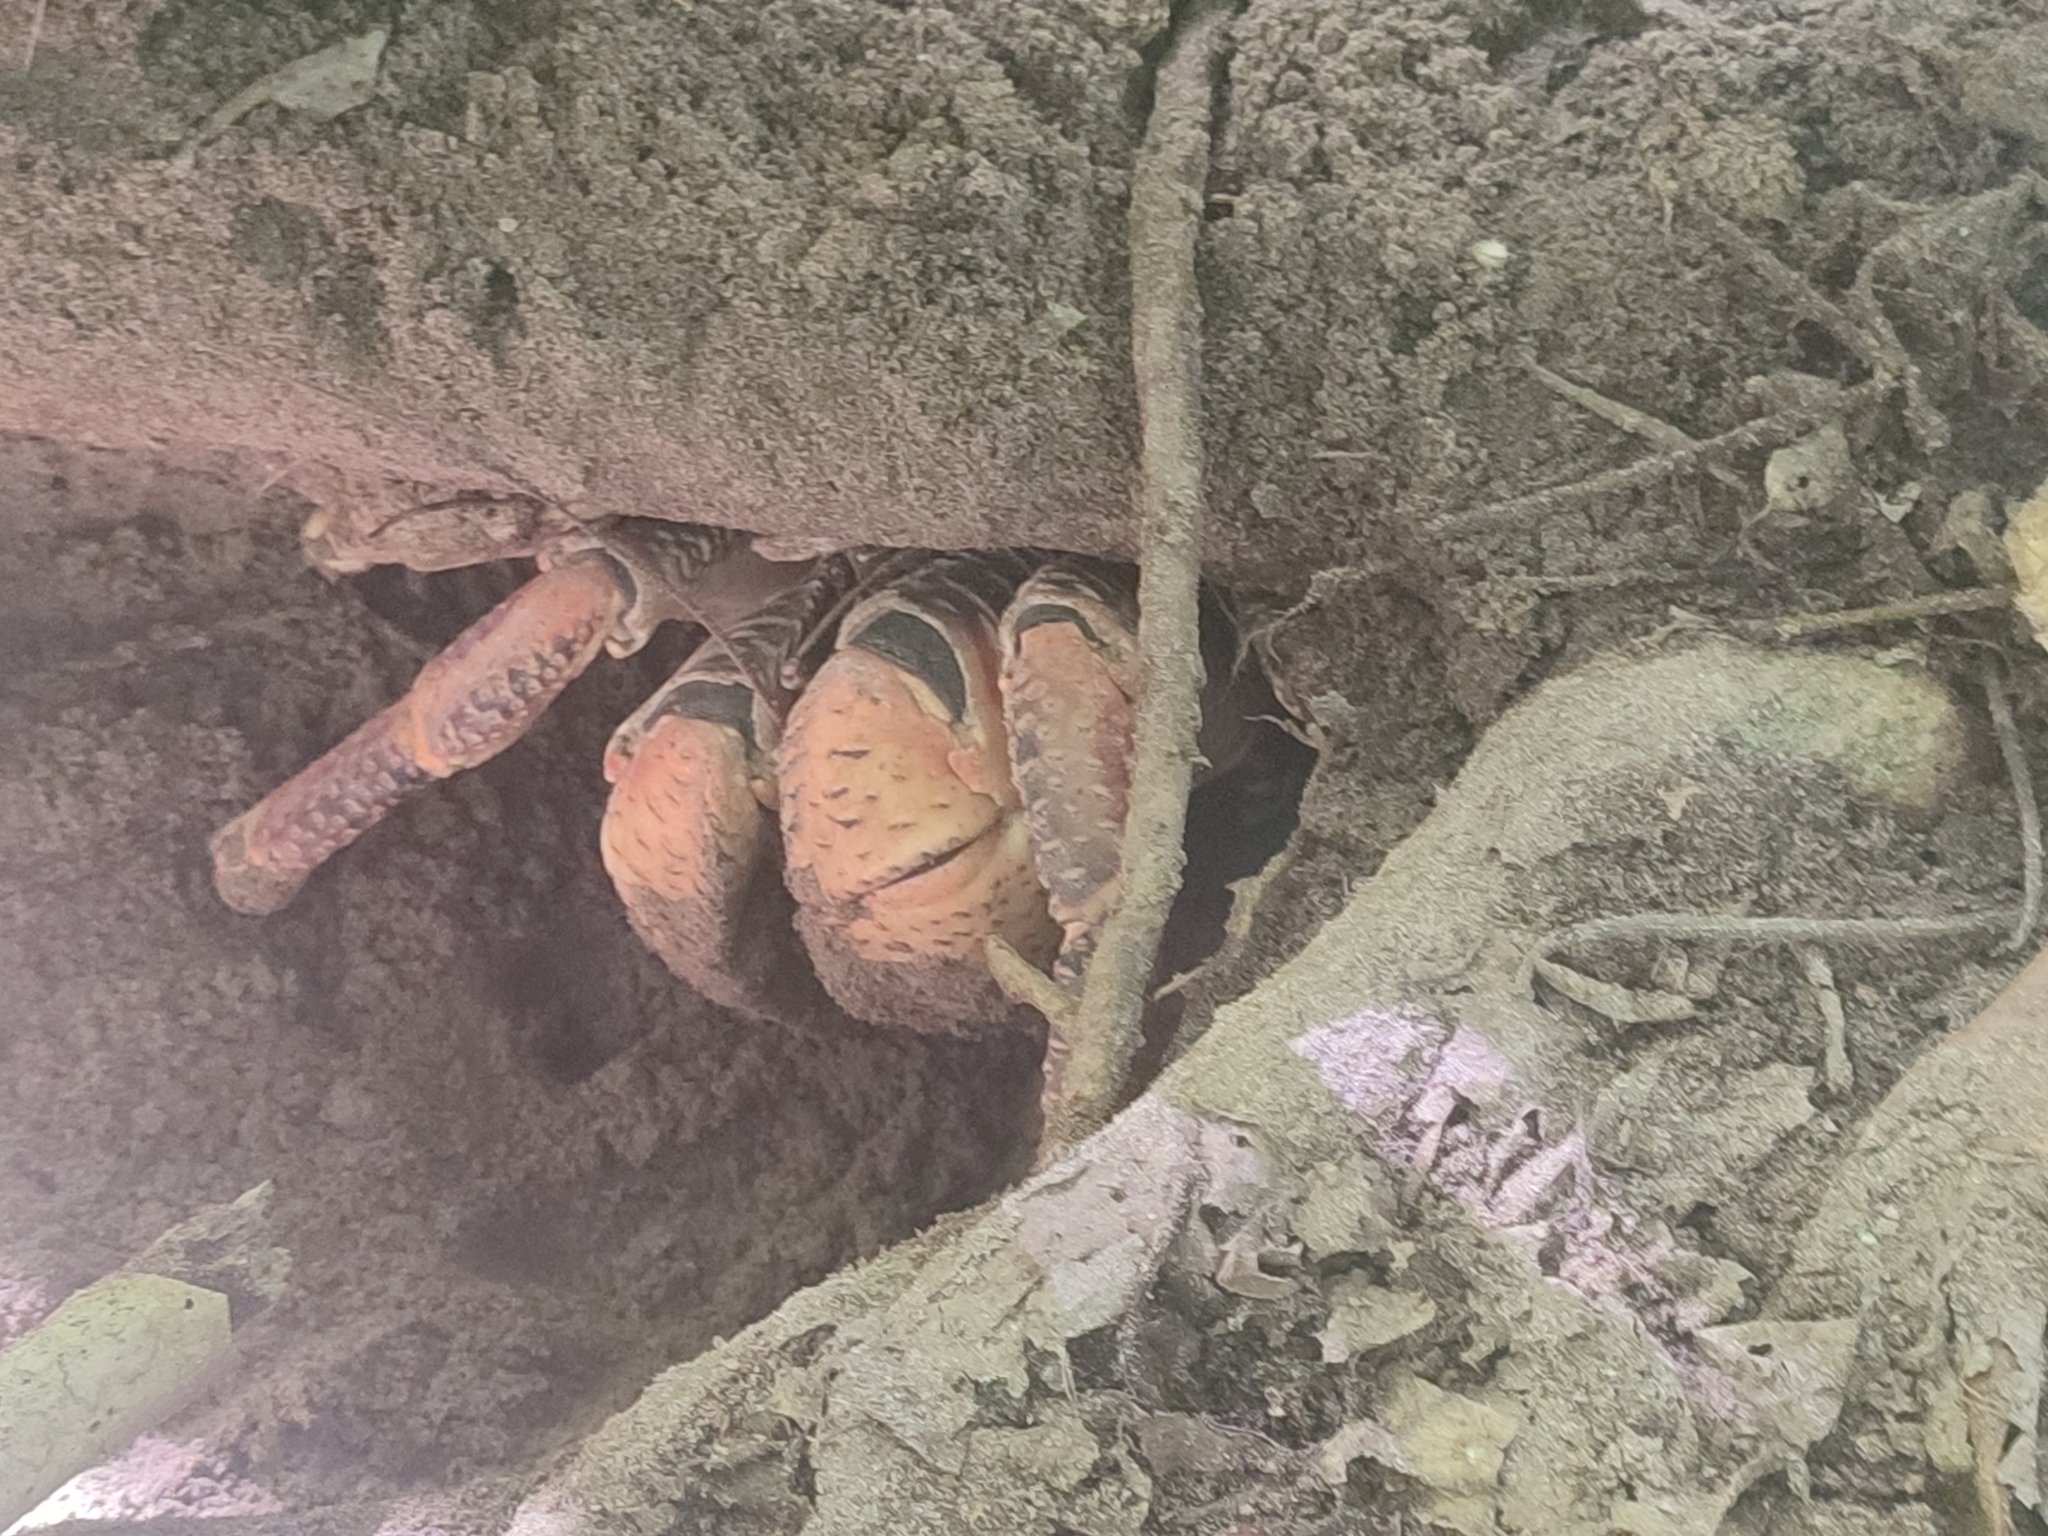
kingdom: Animalia
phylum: Arthropoda
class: Malacostraca
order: Decapoda
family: Coenobitidae
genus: Birgus
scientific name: Birgus latro
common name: Coconut crab
